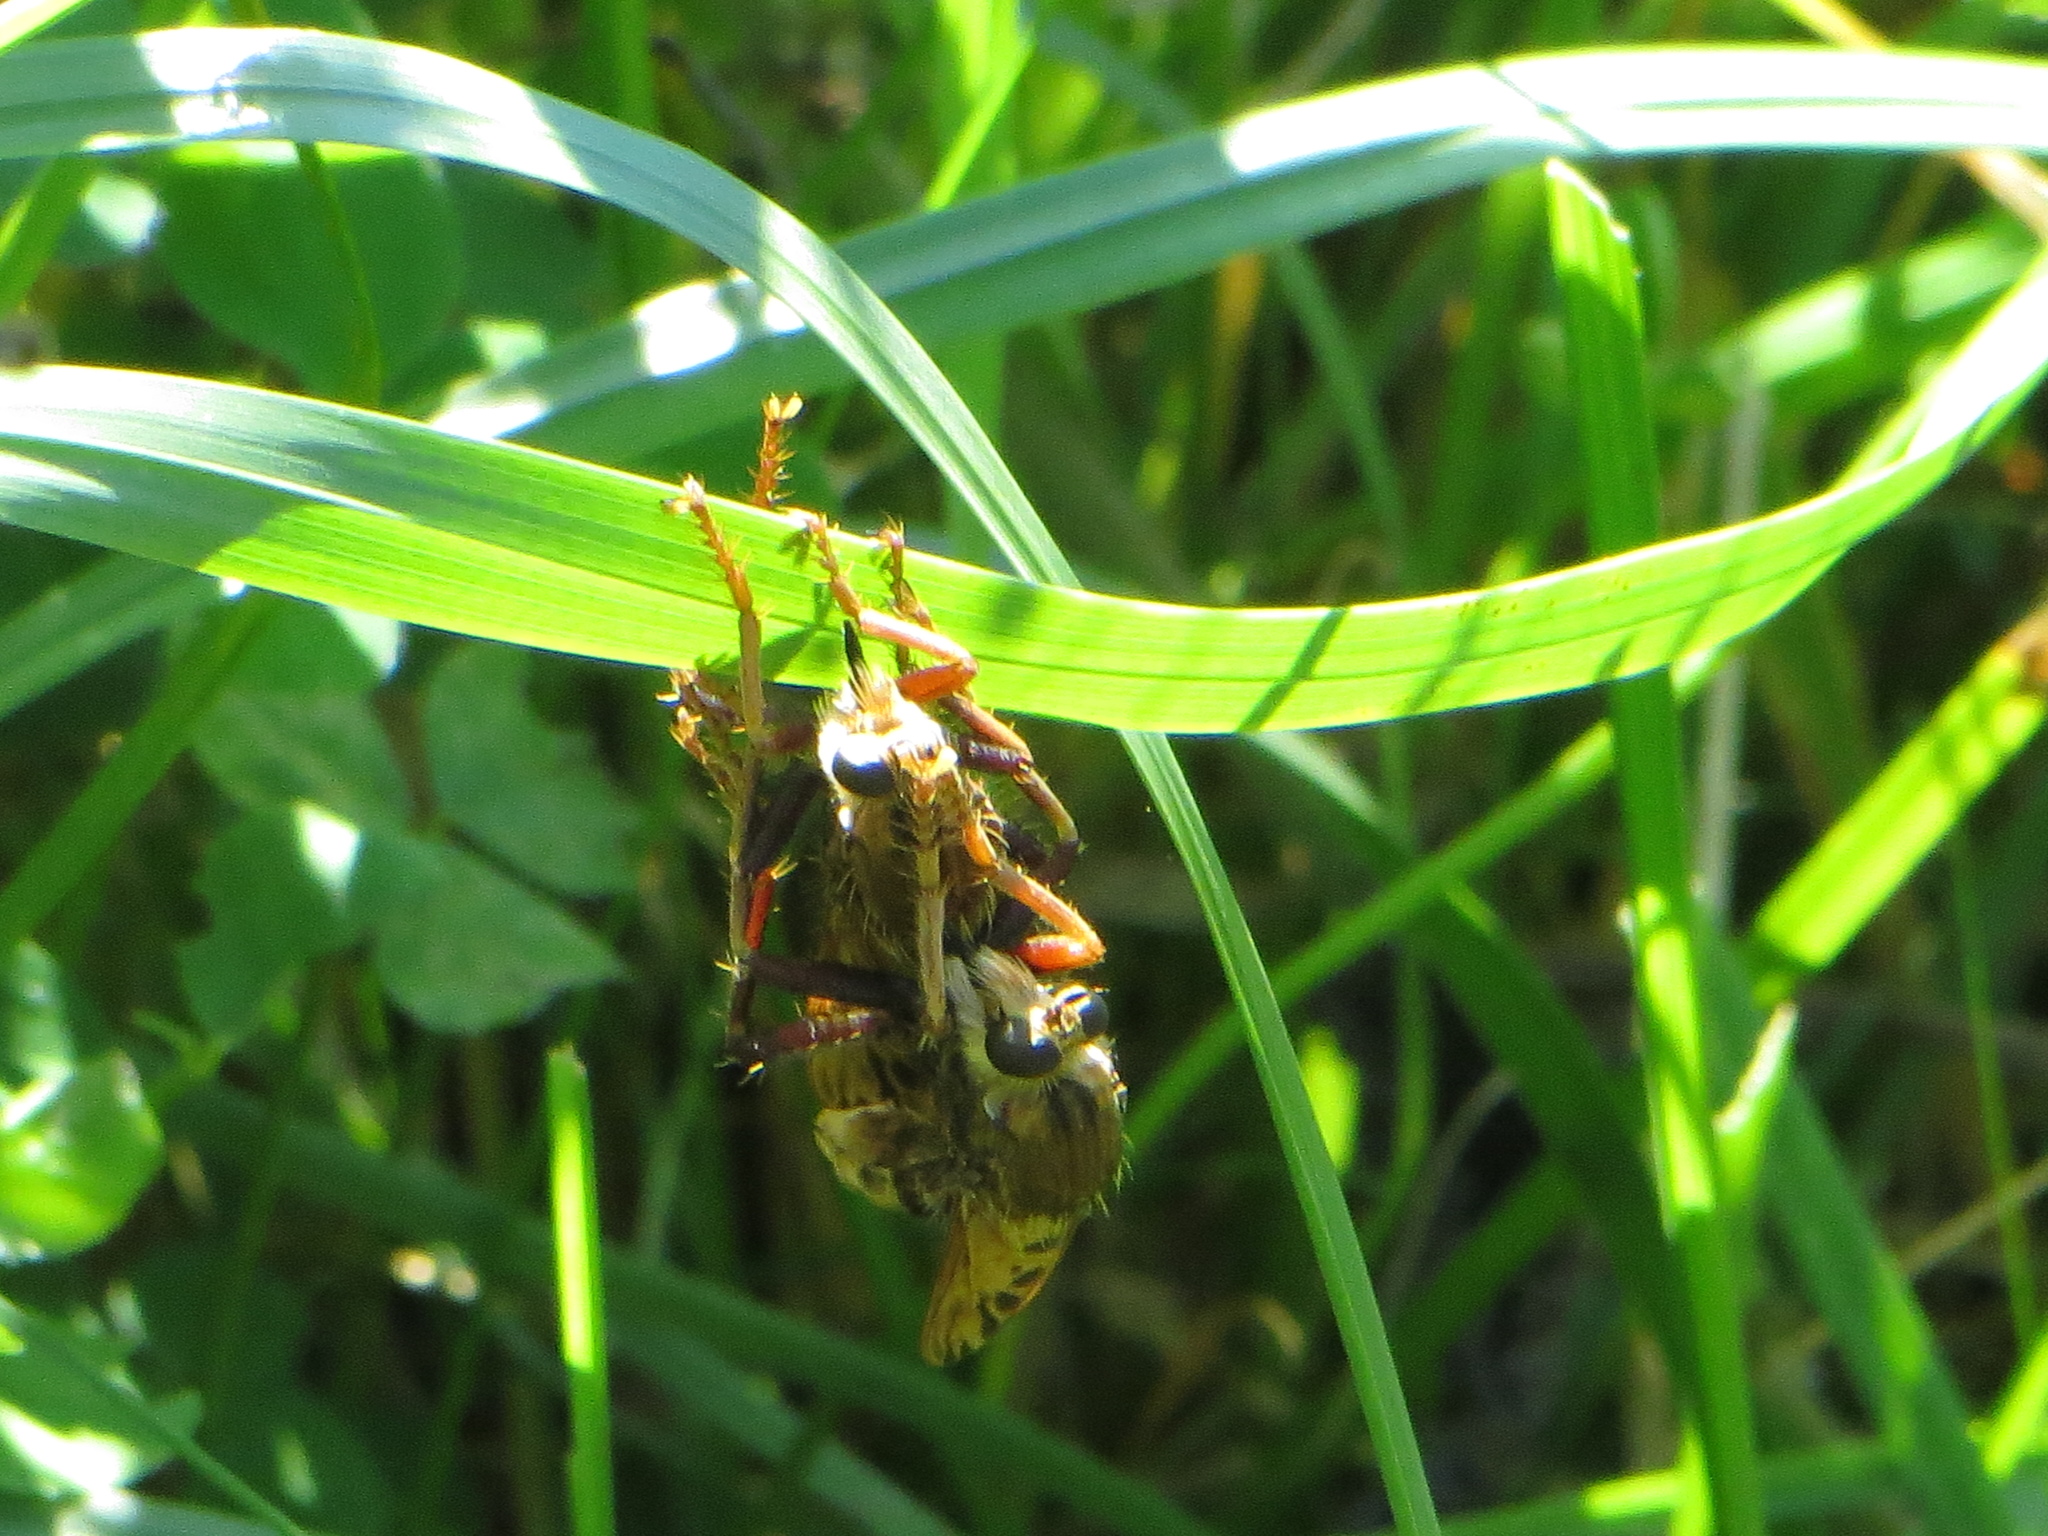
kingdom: Animalia
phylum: Arthropoda
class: Insecta
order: Diptera
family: Asilidae
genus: Asilus
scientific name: Asilus crabroniformis
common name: Hornet robberfly
